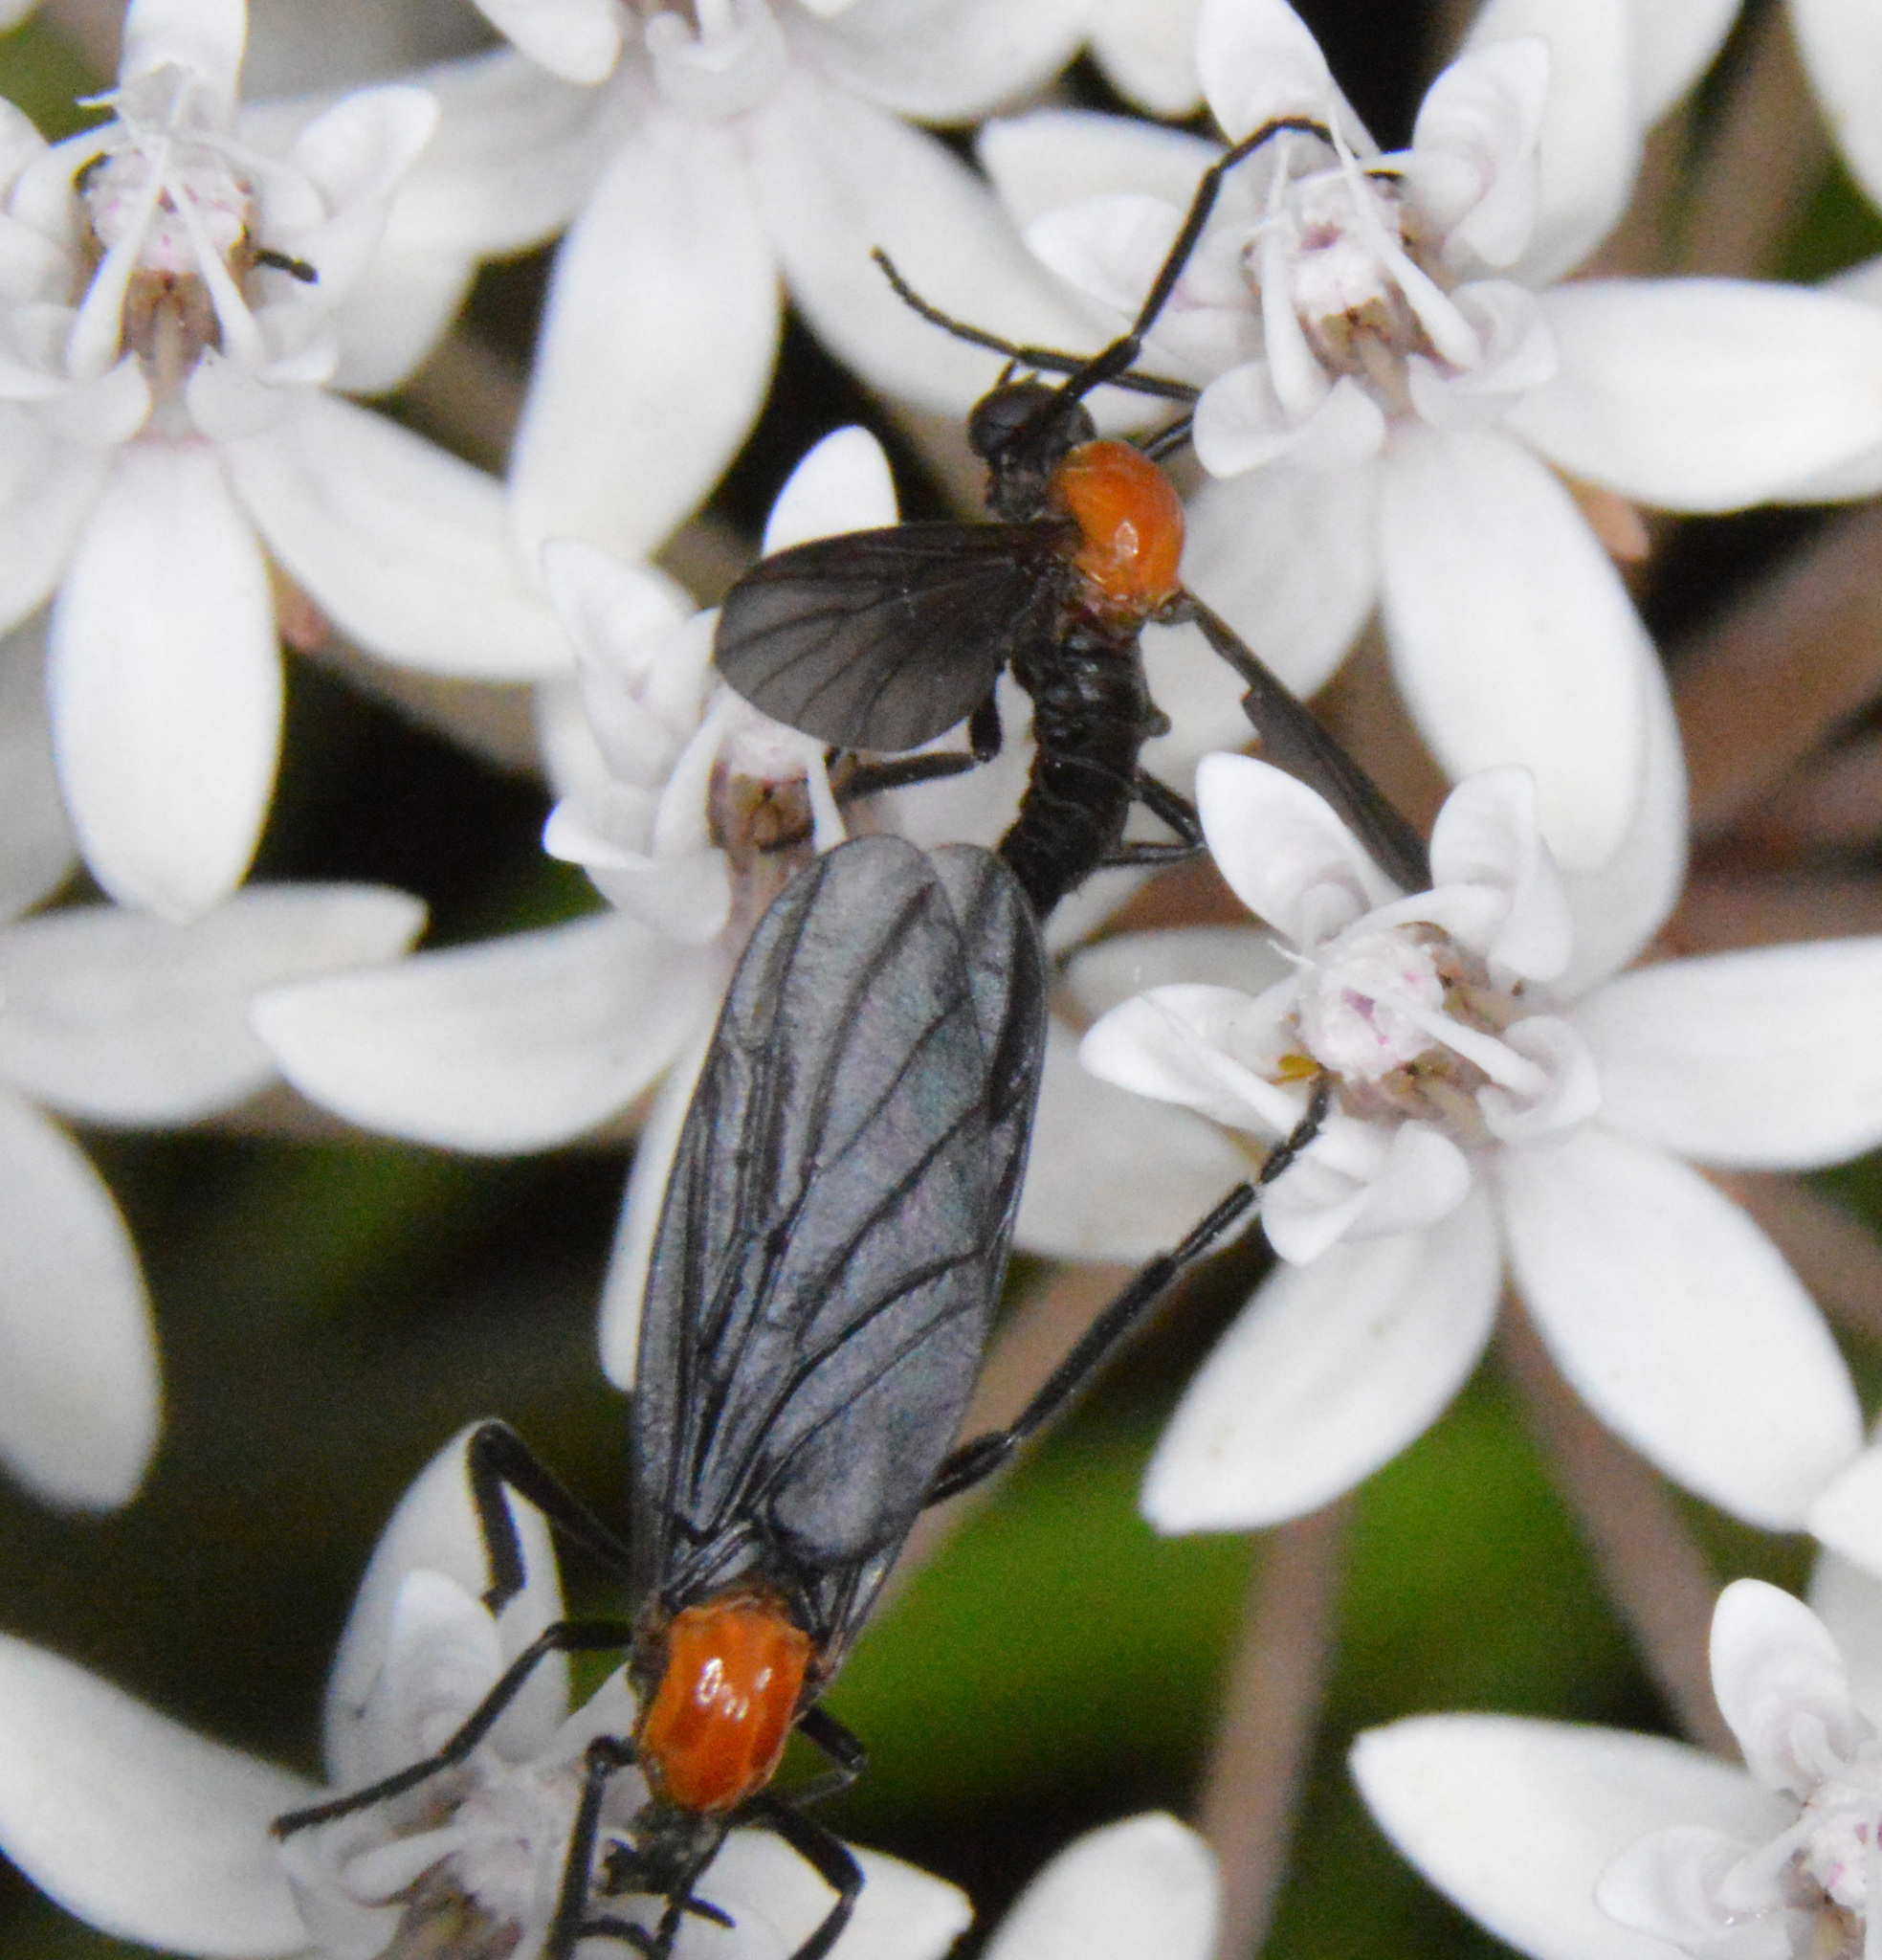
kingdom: Animalia
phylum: Arthropoda
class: Insecta
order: Diptera
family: Bibionidae
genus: Plecia
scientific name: Plecia nearctica
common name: March fly
